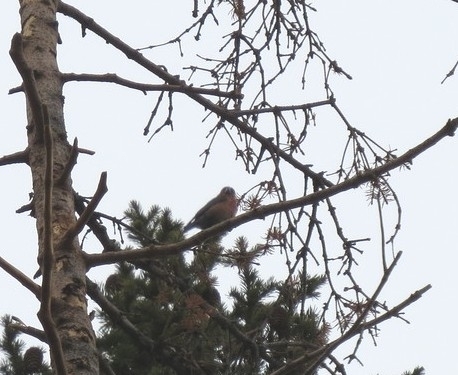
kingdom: Animalia
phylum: Chordata
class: Aves
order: Passeriformes
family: Fringillidae
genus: Loxia
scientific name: Loxia curvirostra
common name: Red crossbill
